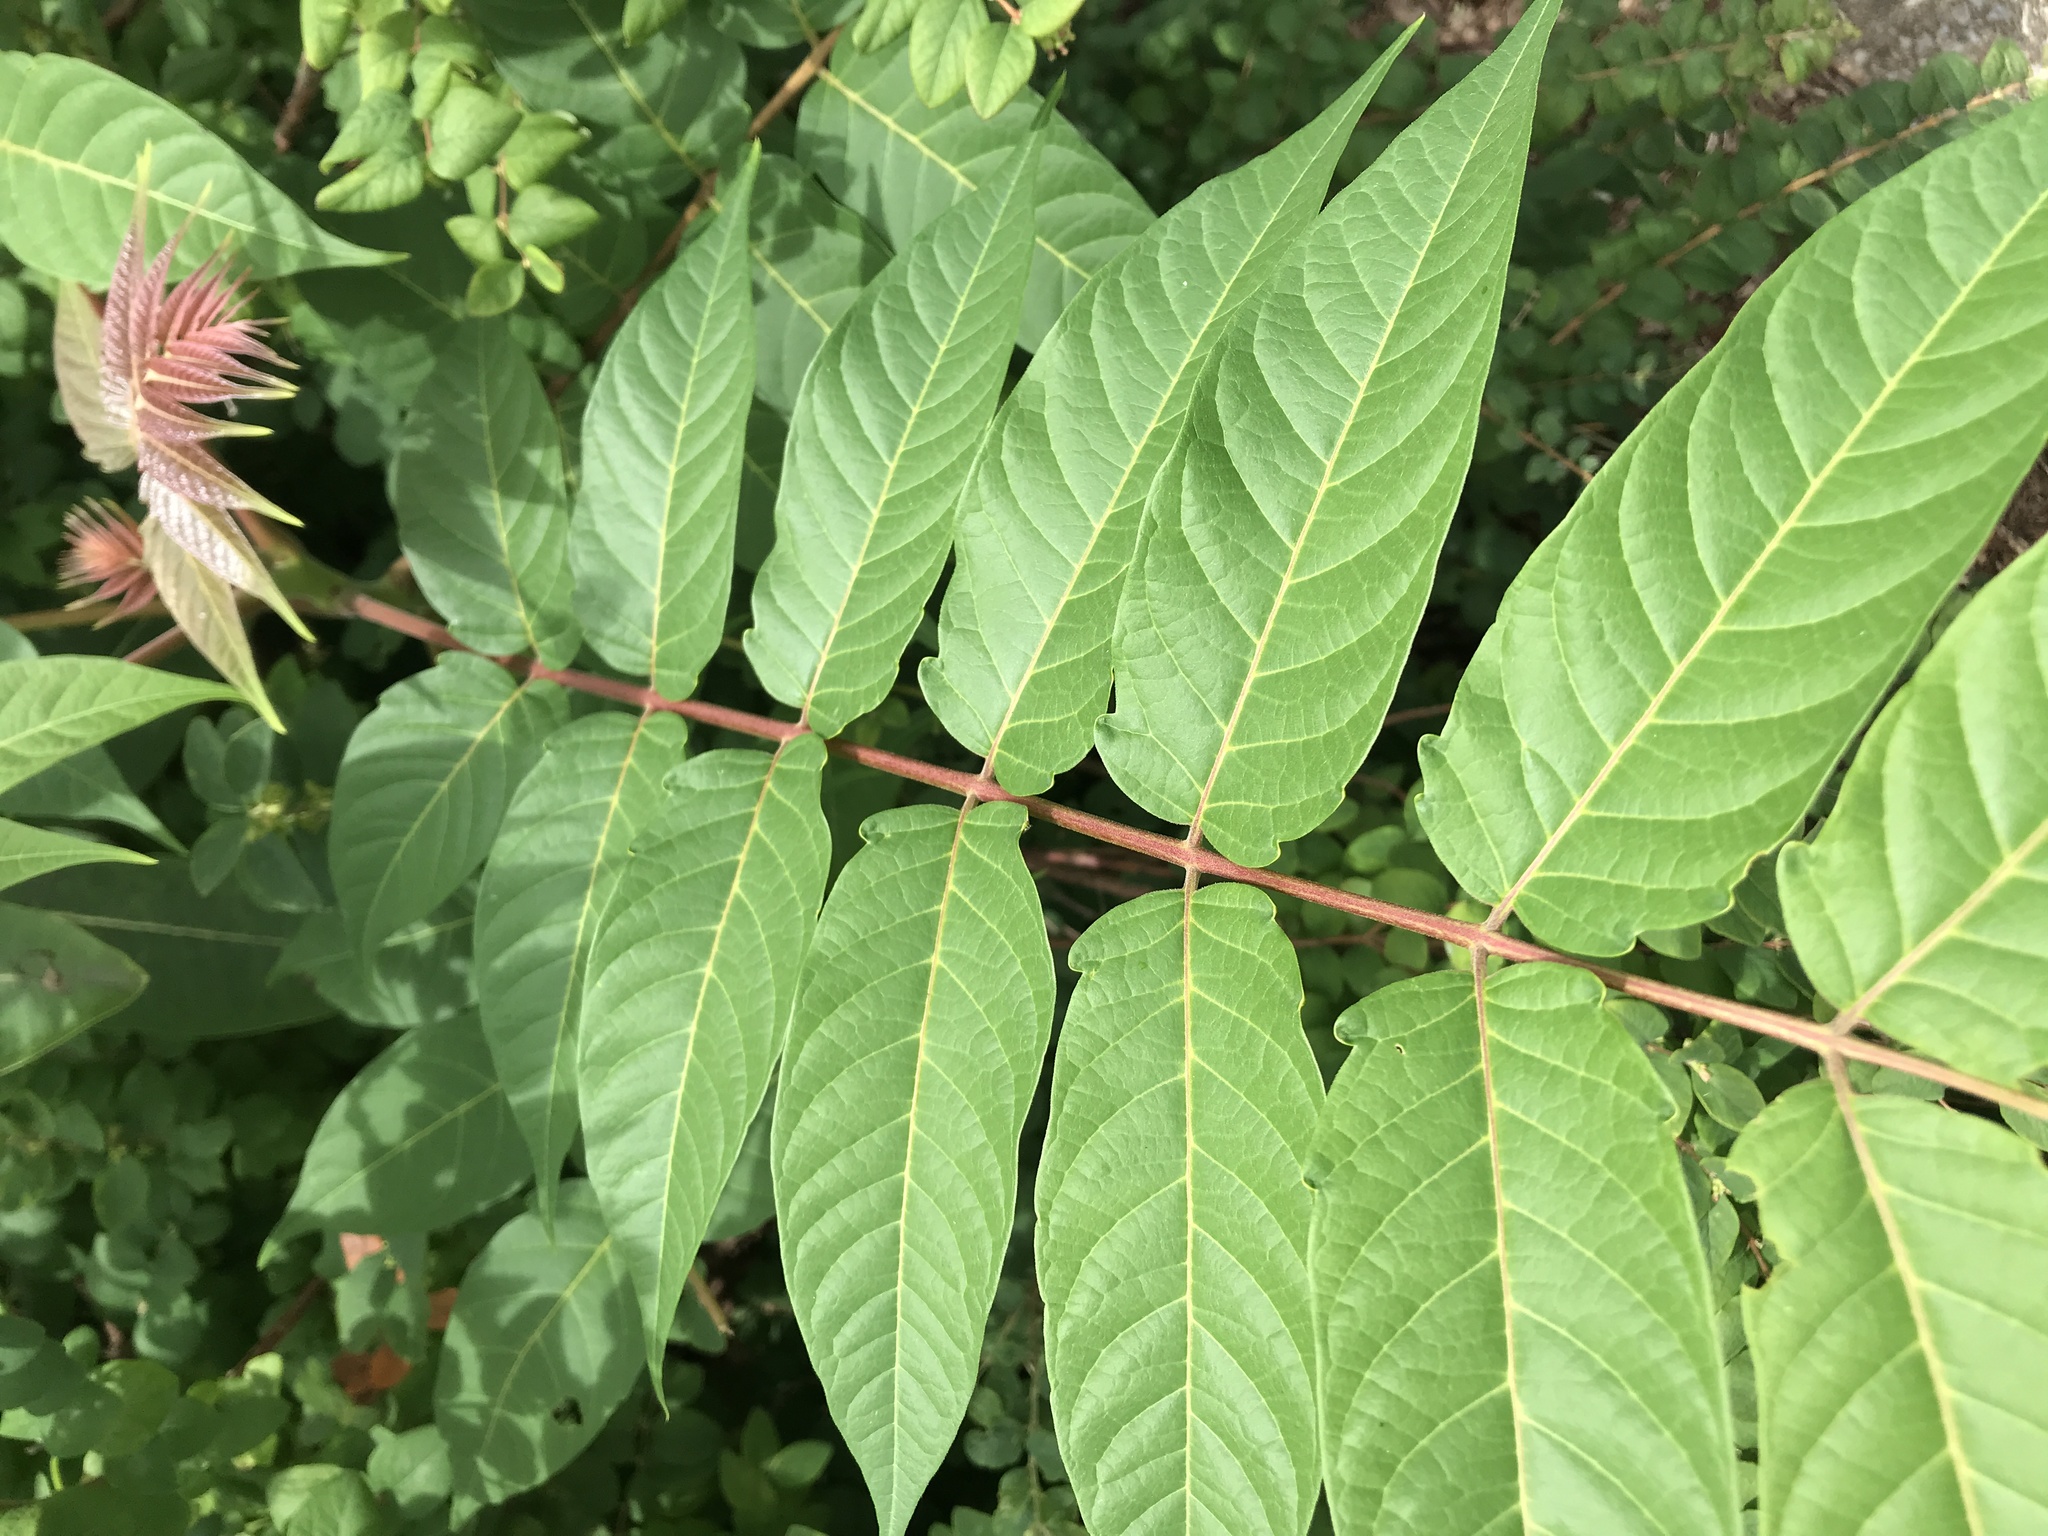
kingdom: Plantae
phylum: Tracheophyta
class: Magnoliopsida
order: Sapindales
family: Simaroubaceae
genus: Ailanthus
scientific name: Ailanthus altissima
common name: Tree-of-heaven
